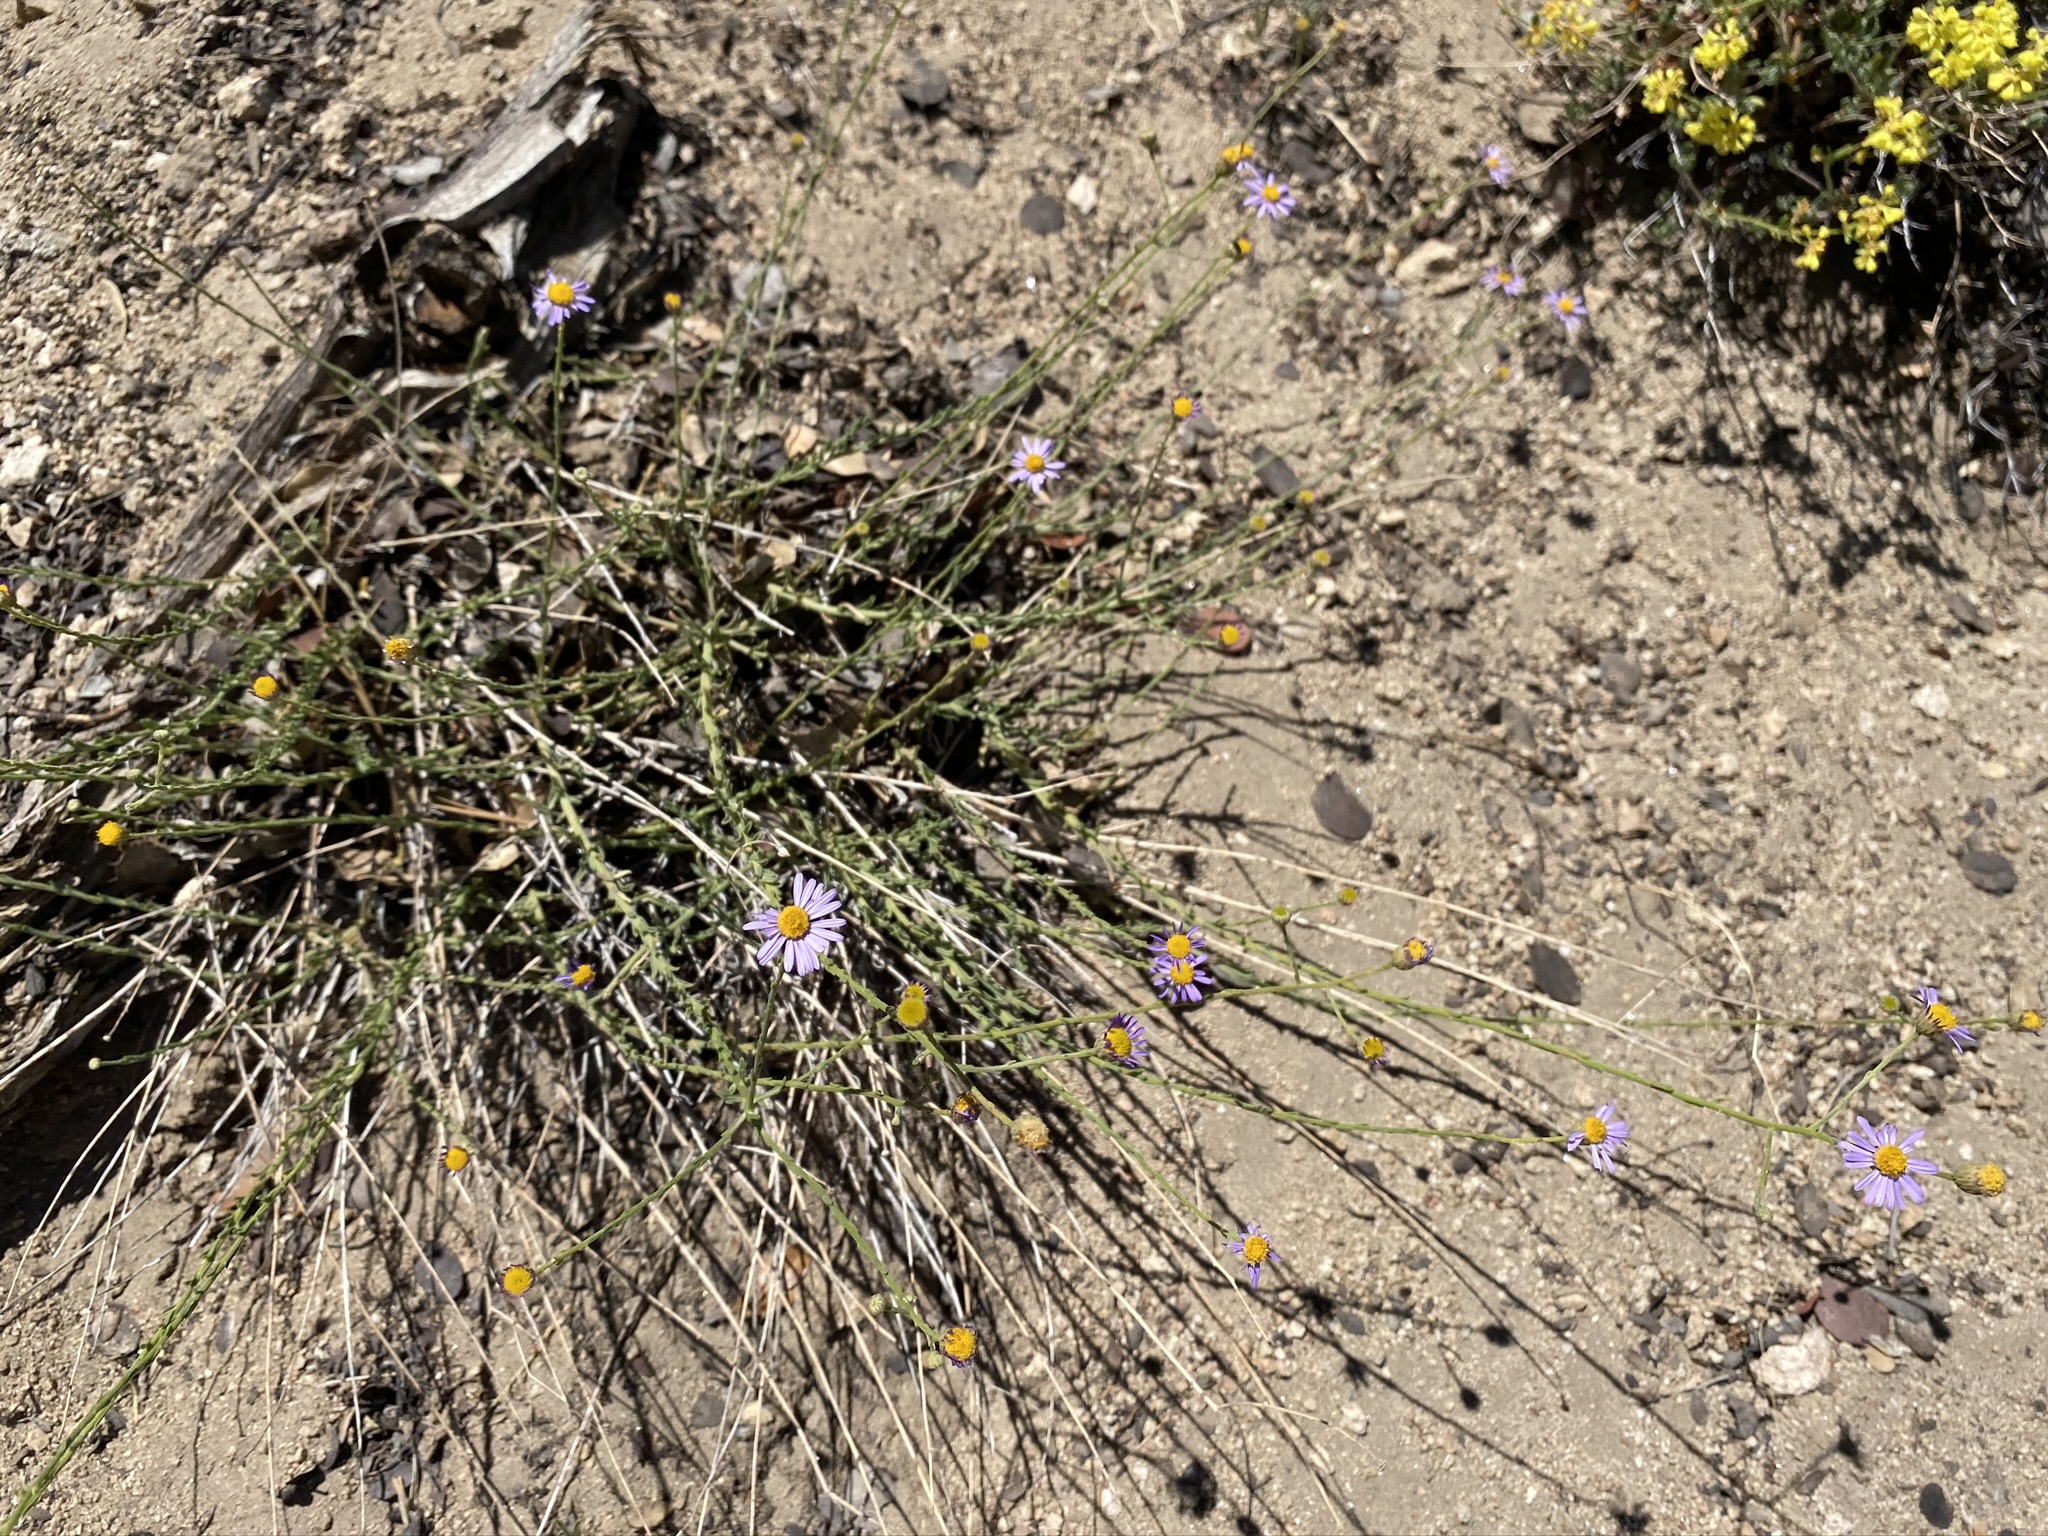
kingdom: Plantae
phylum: Tracheophyta
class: Magnoliopsida
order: Asterales
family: Asteraceae
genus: Erigeron
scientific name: Erigeron breweri
